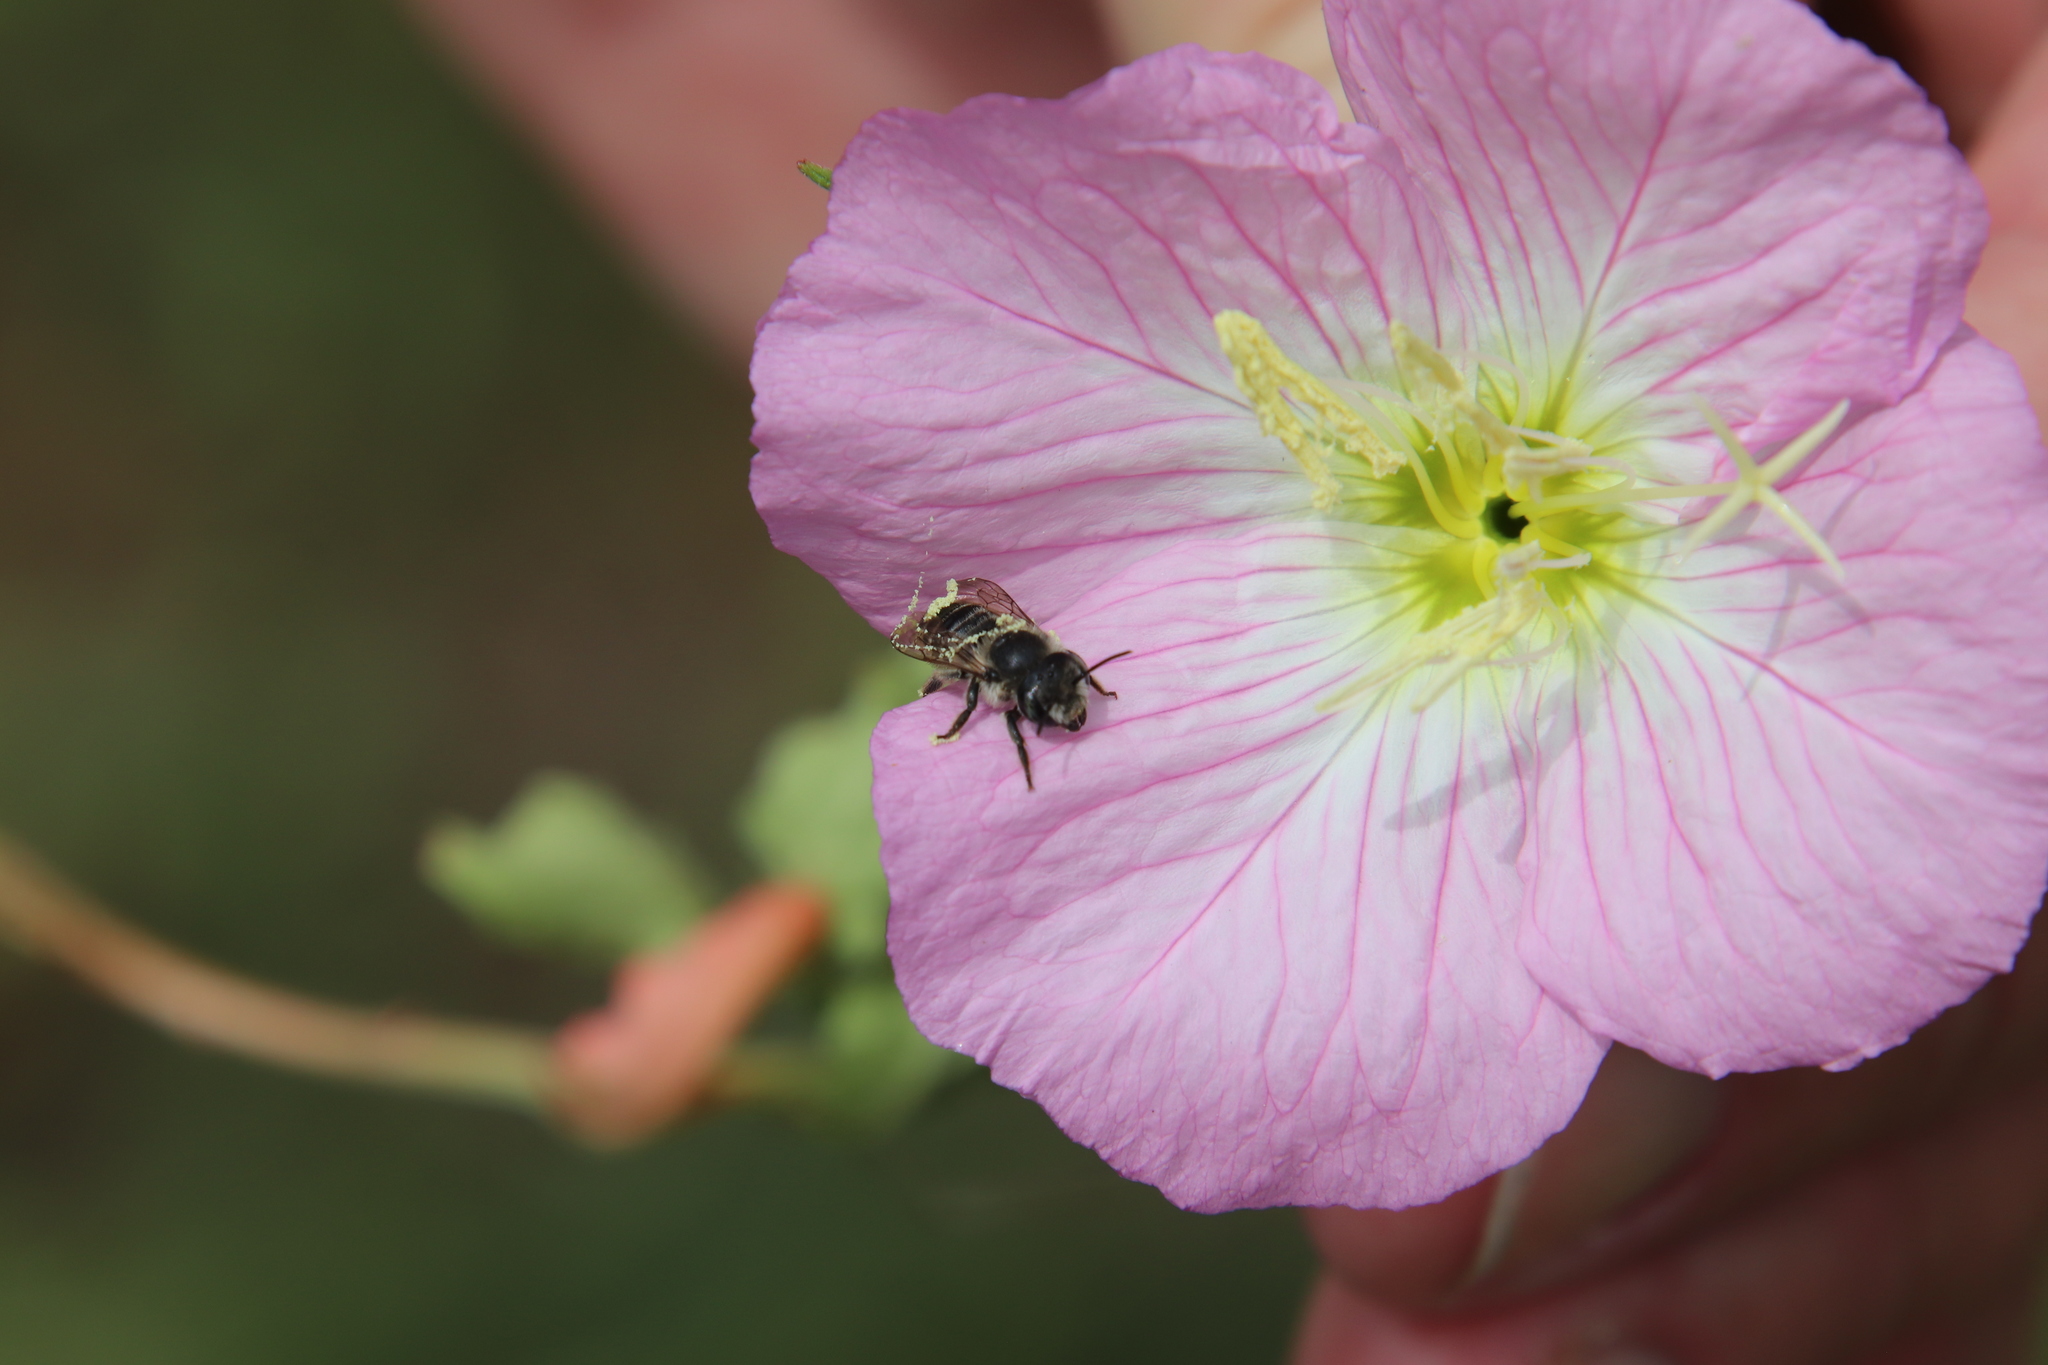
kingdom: Plantae
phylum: Tracheophyta
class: Magnoliopsida
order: Myrtales
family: Onagraceae
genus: Oenothera
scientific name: Oenothera speciosa
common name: White evening-primrose
